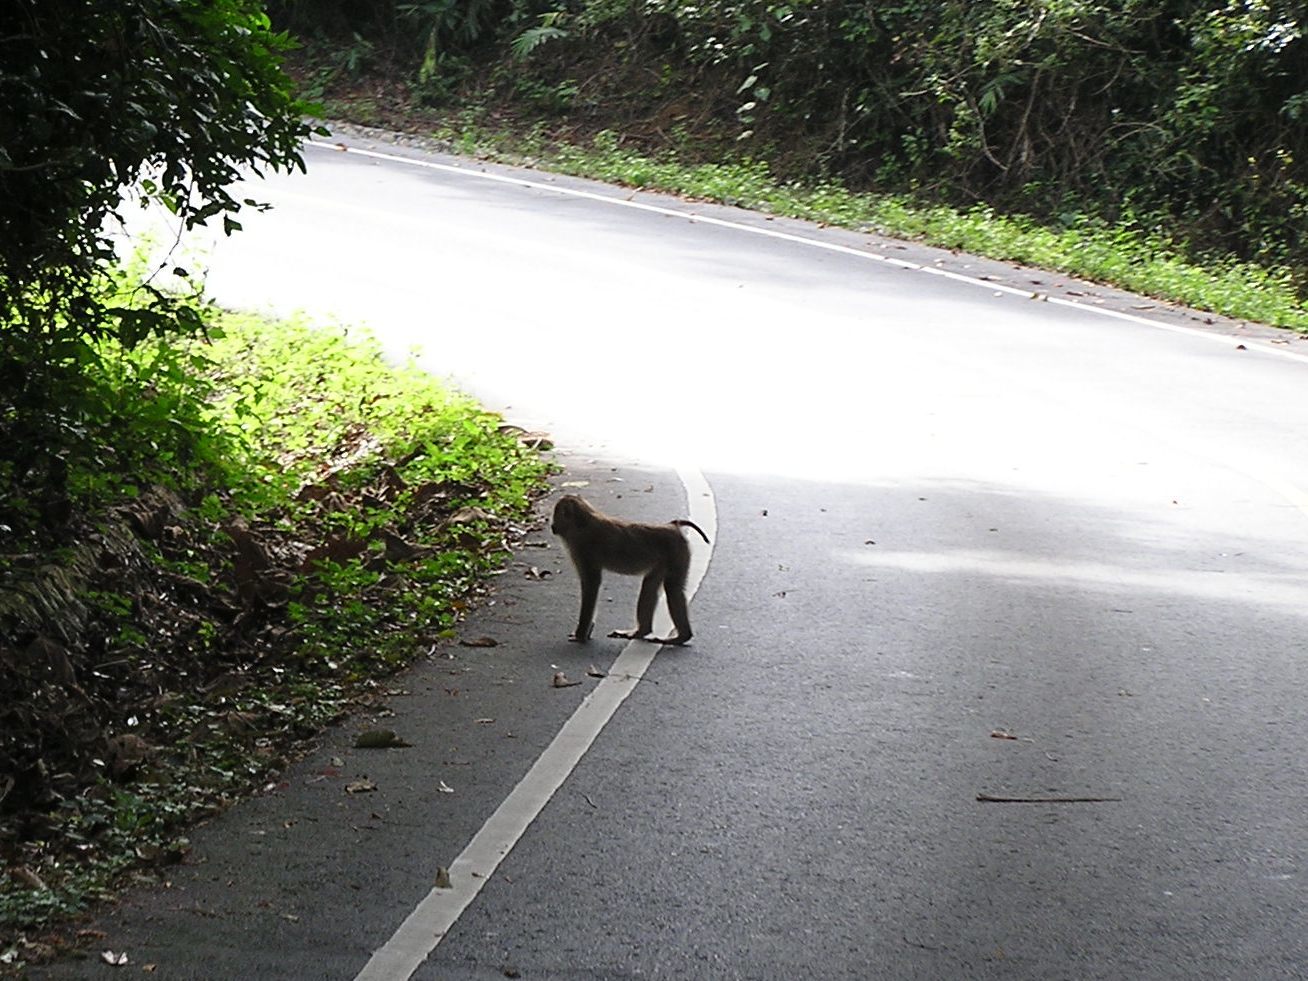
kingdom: Animalia
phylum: Chordata
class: Mammalia
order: Primates
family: Cercopithecidae
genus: Macaca
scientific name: Macaca leonina
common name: Northern pig-tailed macaque
